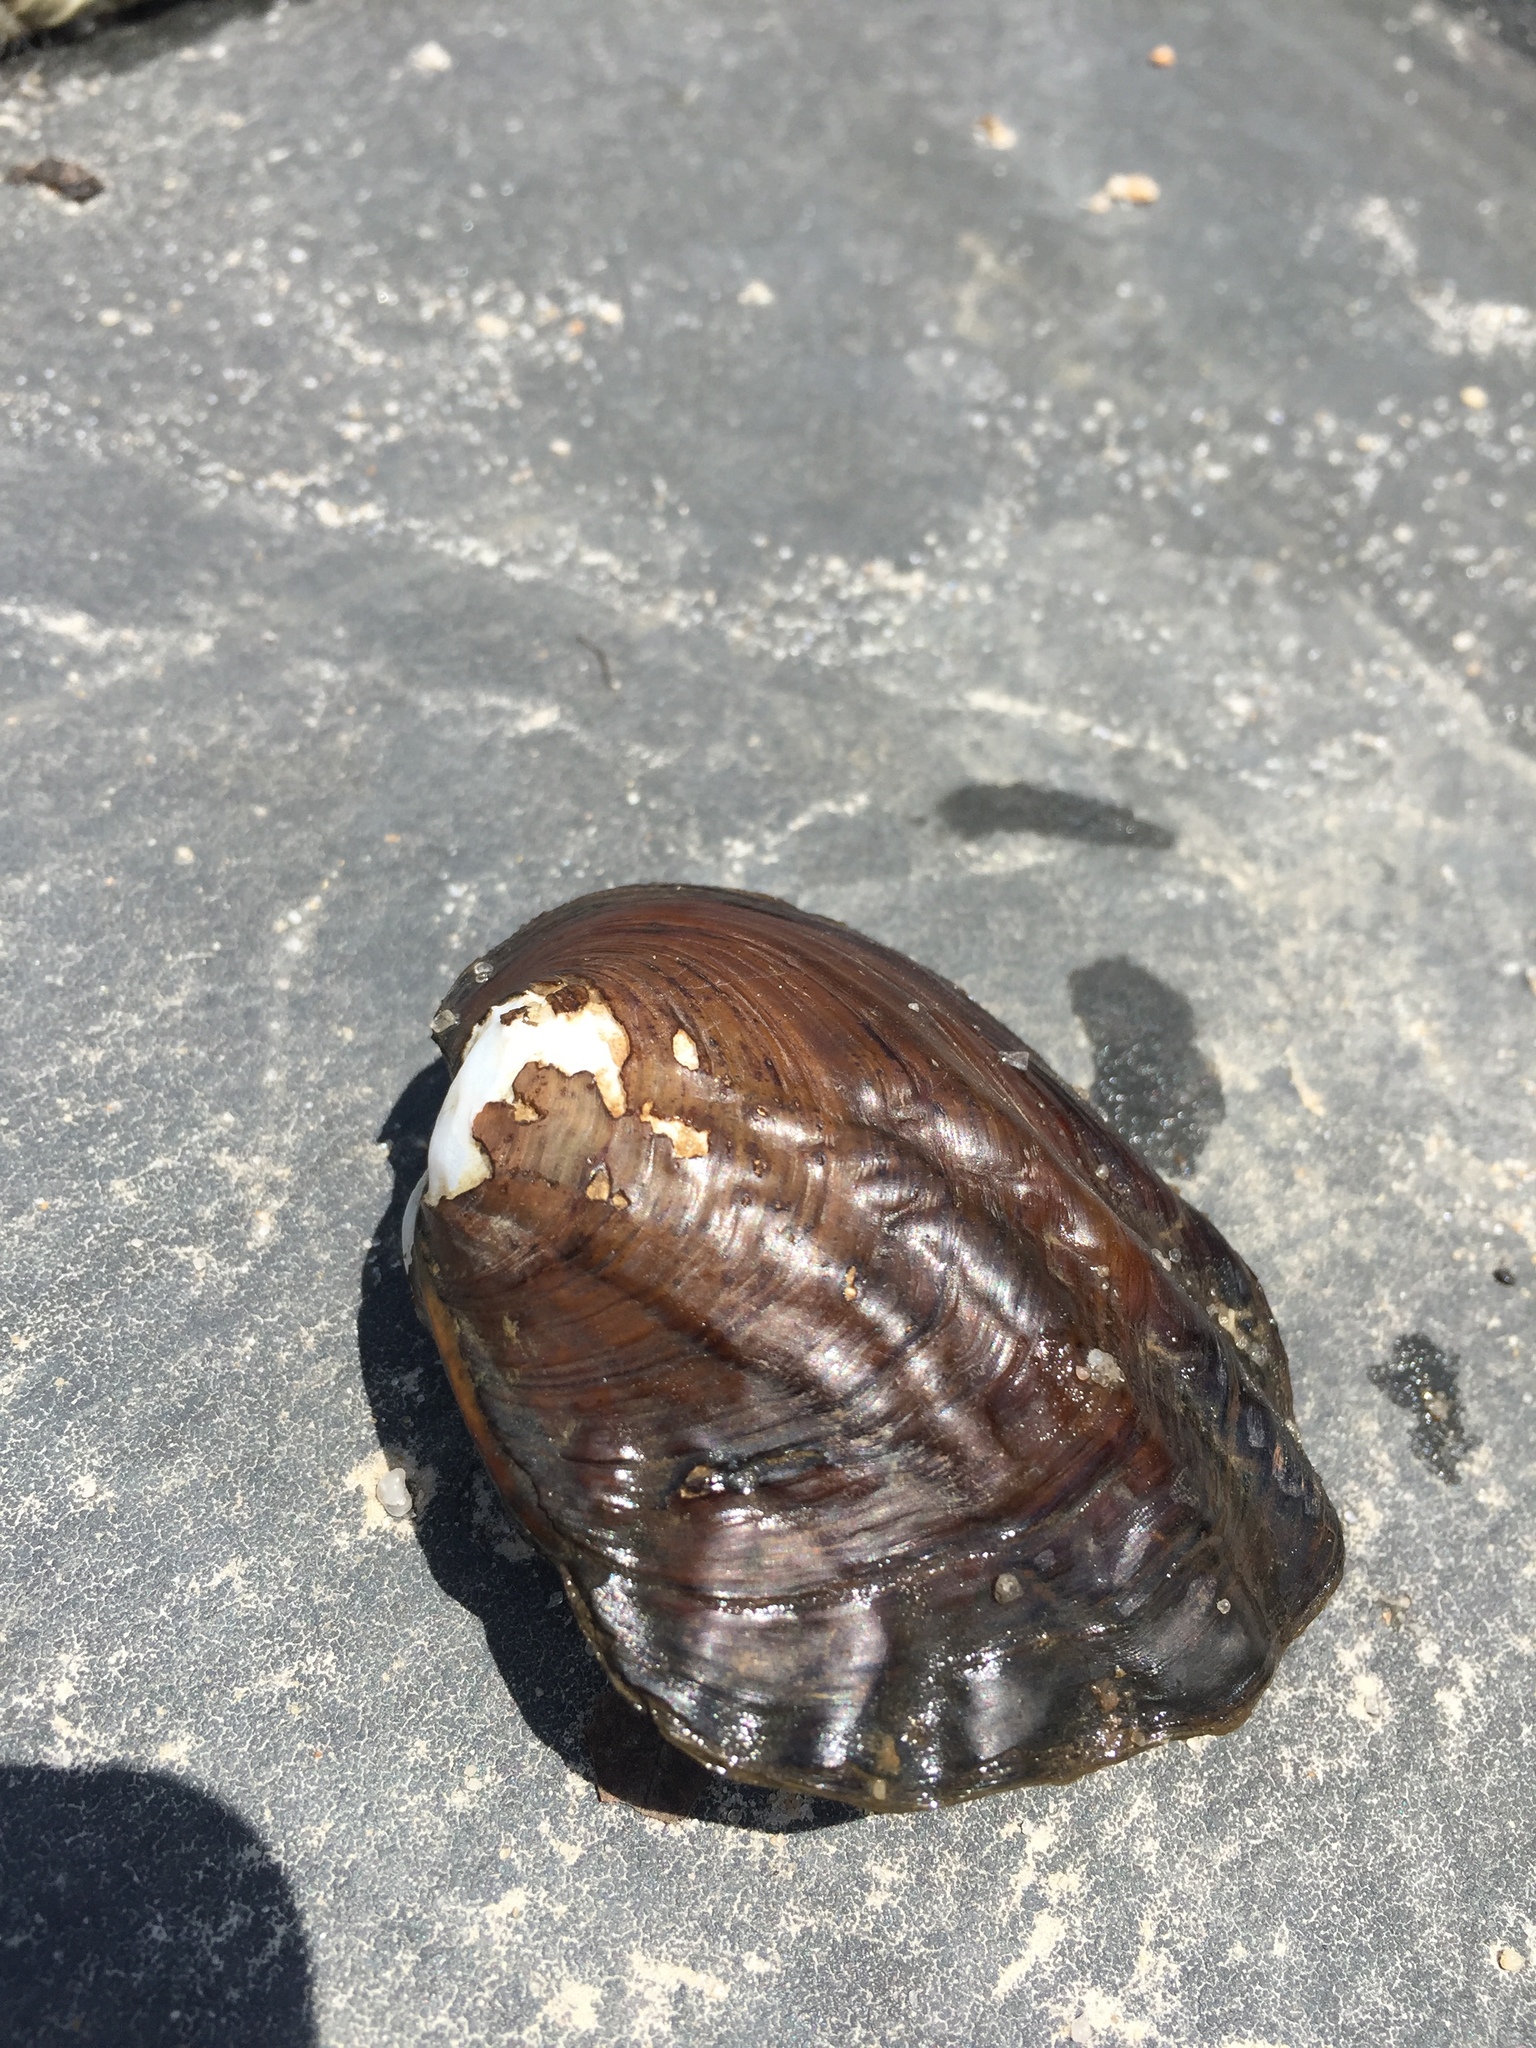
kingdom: Animalia
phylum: Mollusca
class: Bivalvia
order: Unionida
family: Unionidae
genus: Amblema
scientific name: Amblema plicata
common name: Threeridge
